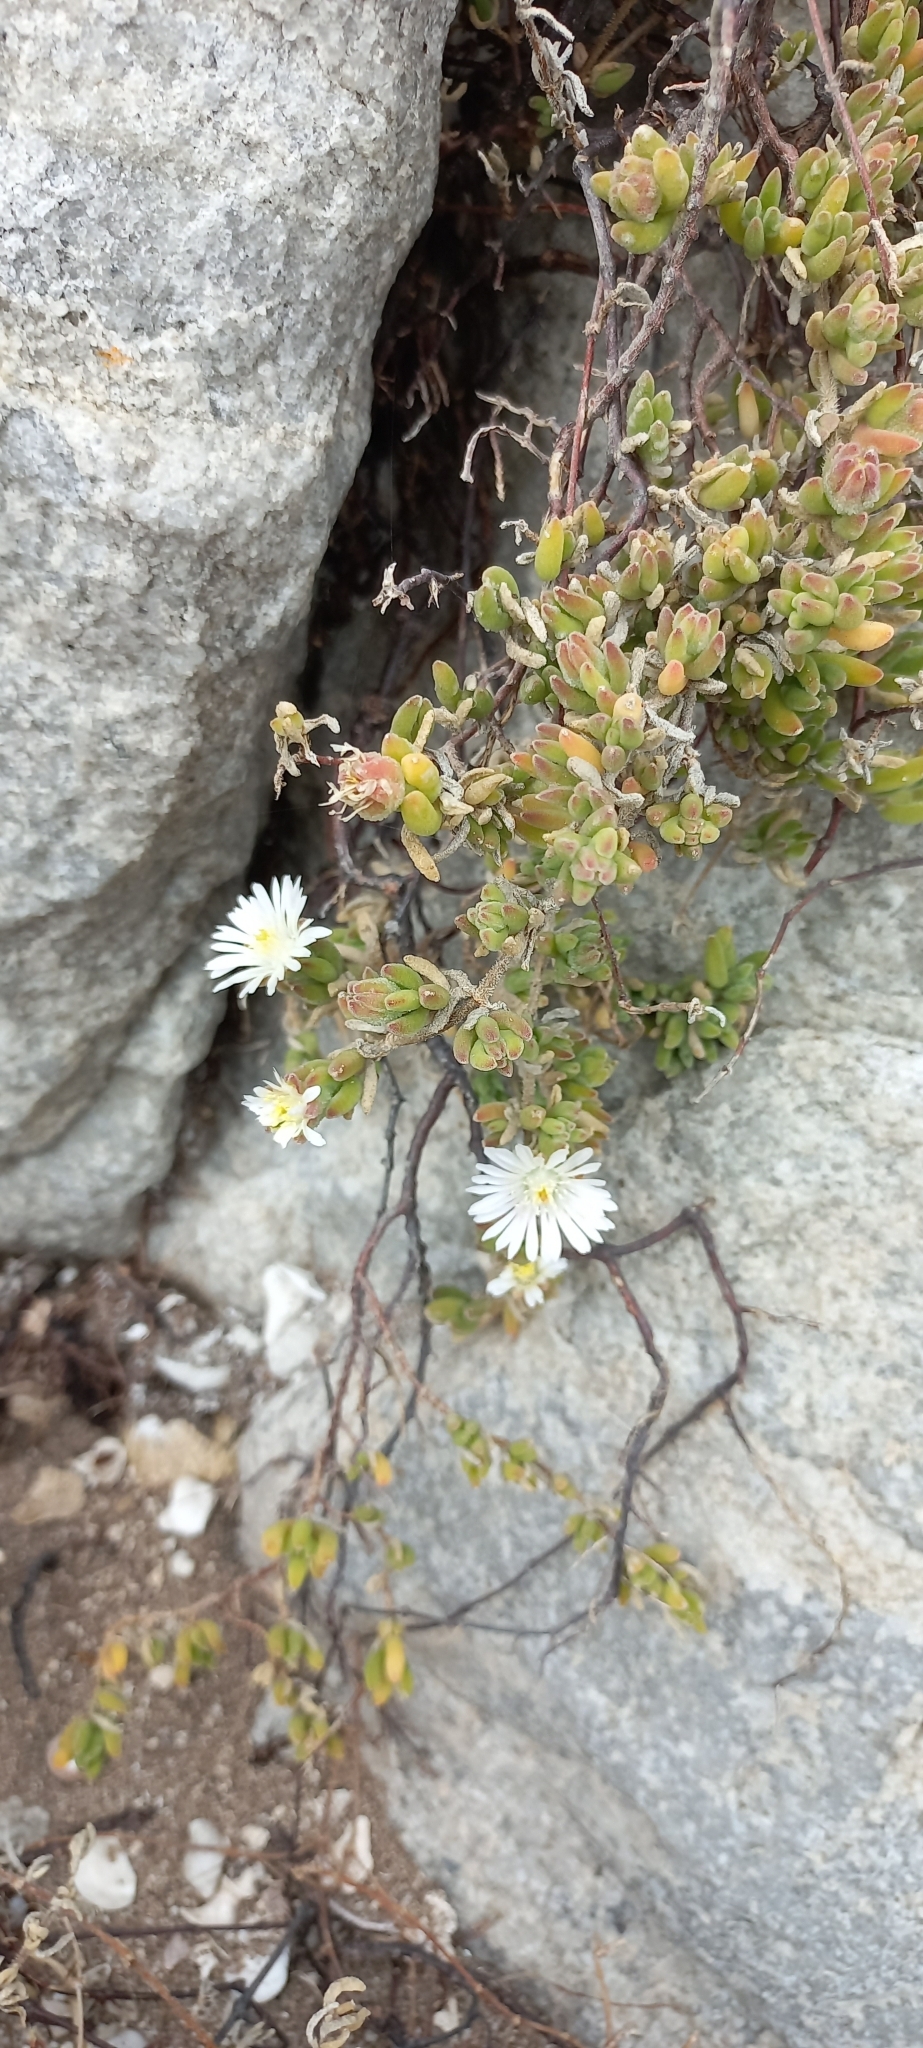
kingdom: Plantae
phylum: Tracheophyta
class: Magnoliopsida
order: Caryophyllales
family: Aizoaceae
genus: Drosanthemum
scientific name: Drosanthemum candens
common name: Rodondo-creeper
